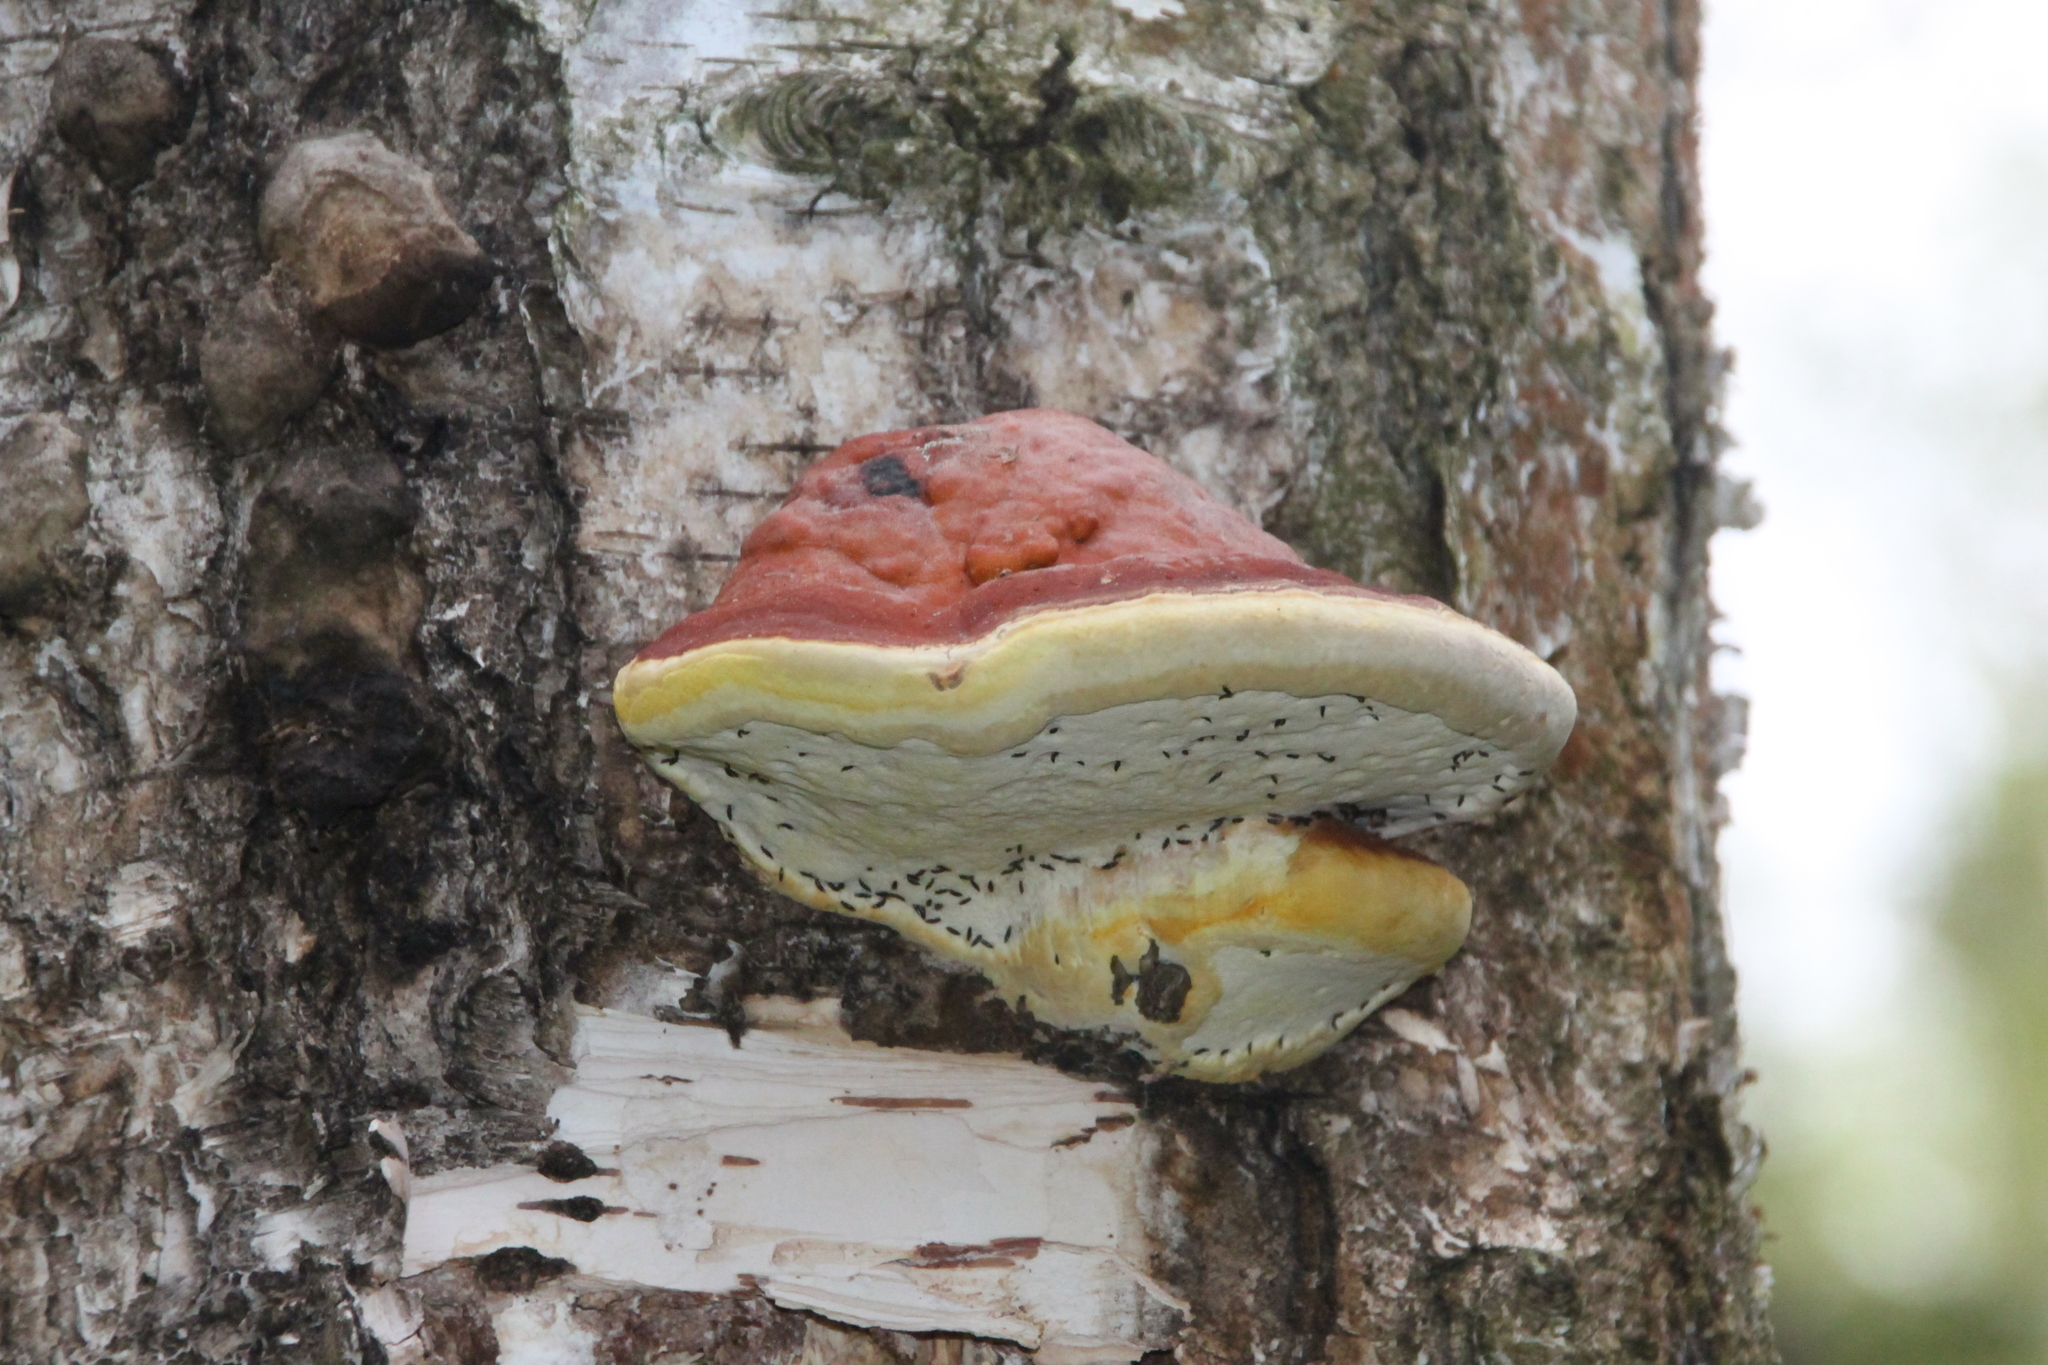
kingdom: Fungi
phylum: Basidiomycota
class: Agaricomycetes
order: Polyporales
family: Fomitopsidaceae
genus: Fomitopsis
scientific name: Fomitopsis pinicola
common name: Red-belted bracket
